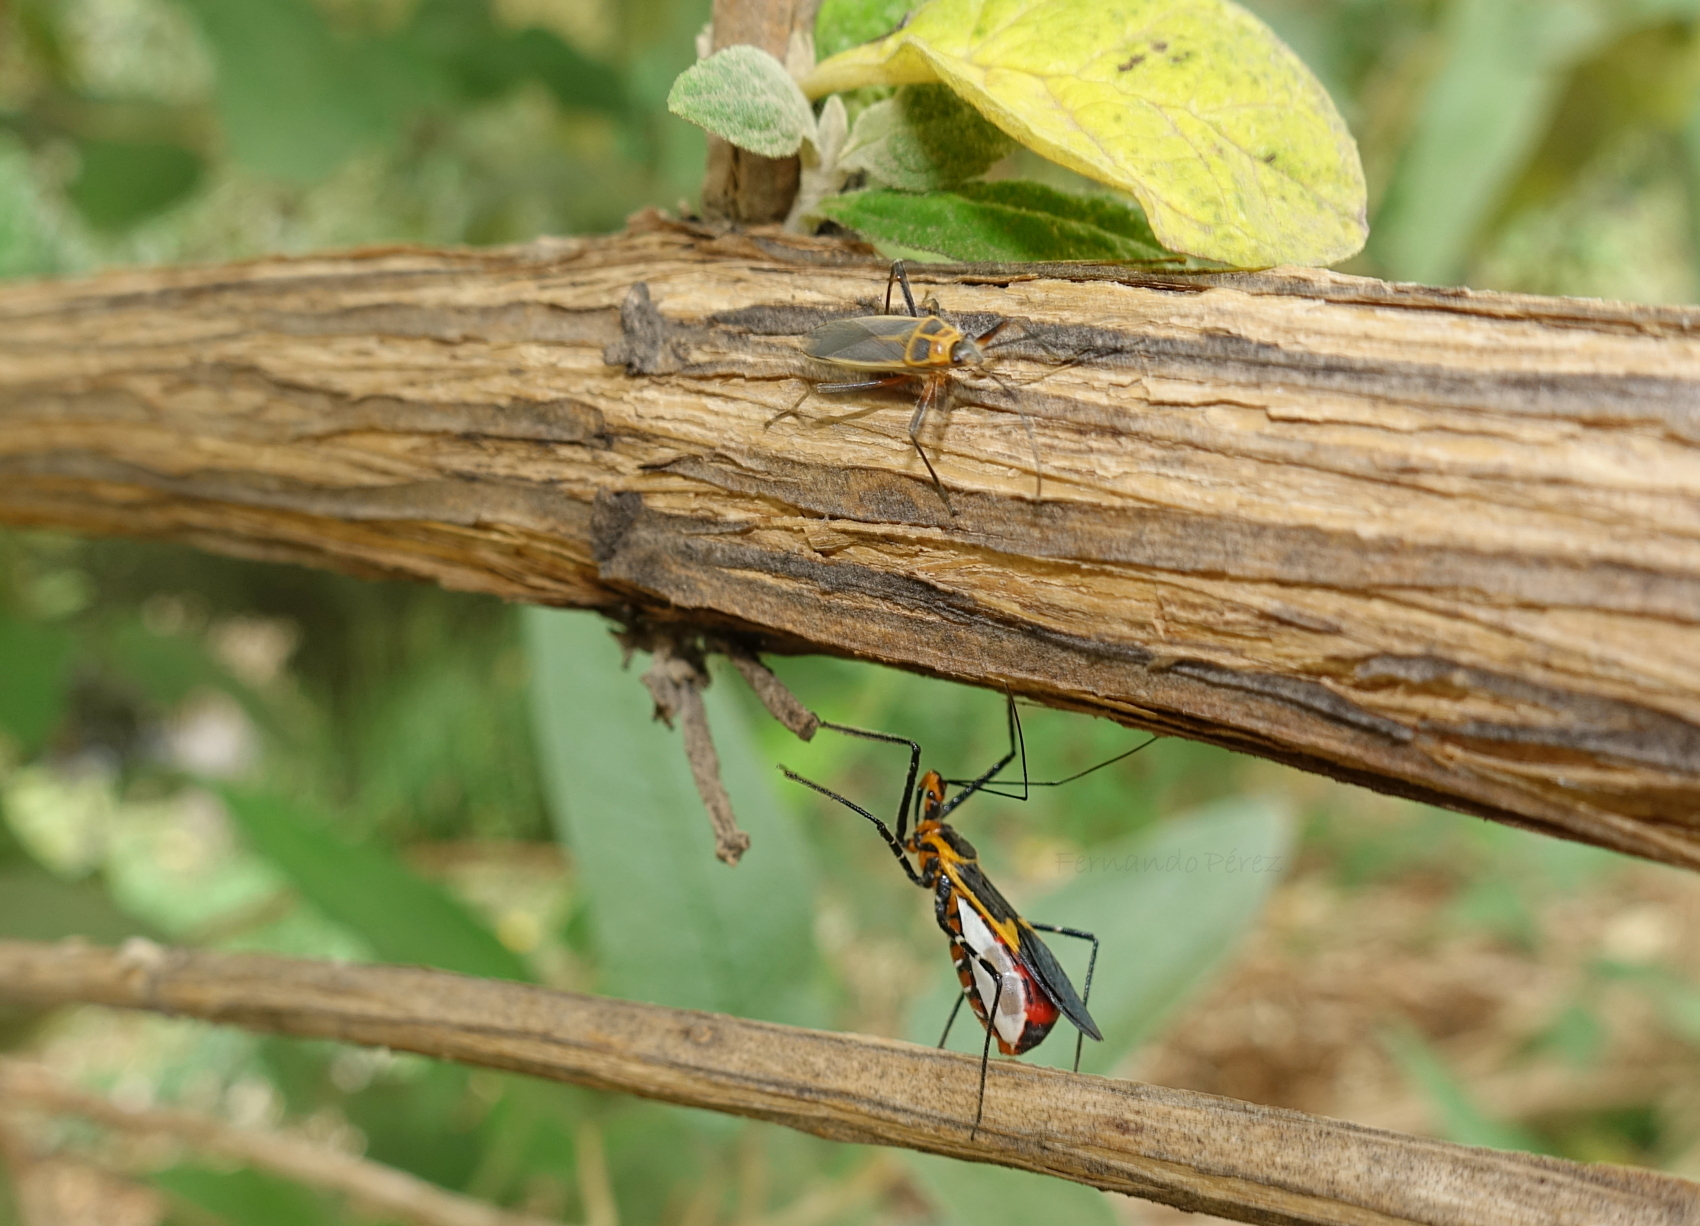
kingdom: Animalia
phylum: Arthropoda
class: Insecta
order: Hemiptera
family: Reduviidae
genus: Zelus
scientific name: Zelus longipes
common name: Milkweed assassin bug
